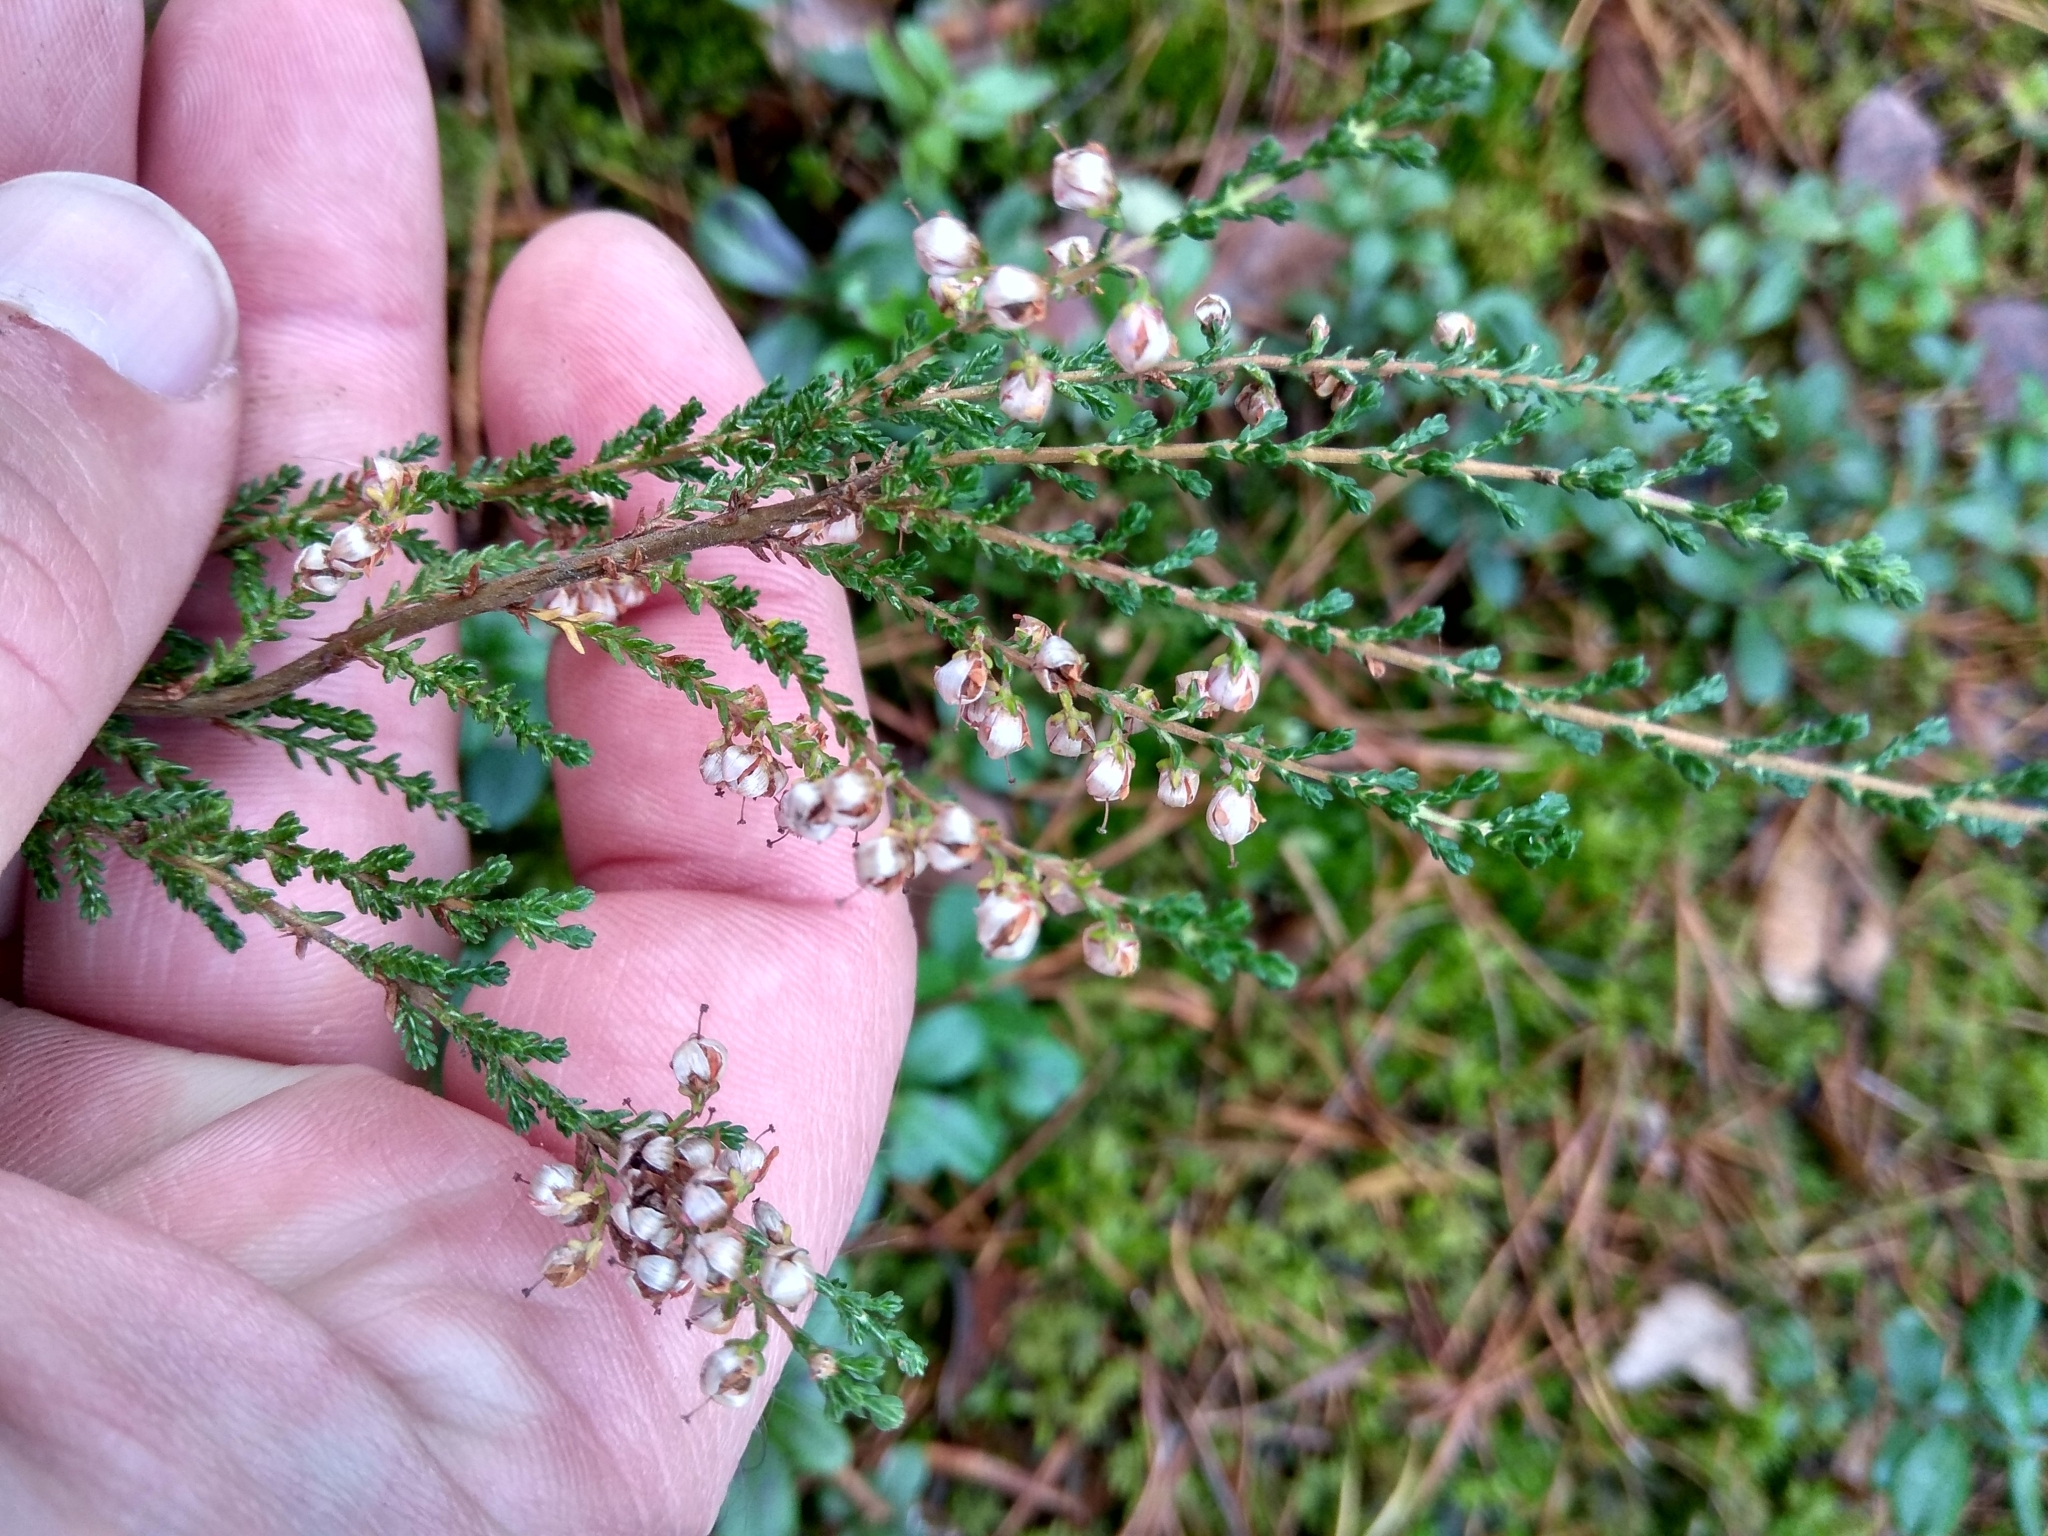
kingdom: Plantae
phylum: Tracheophyta
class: Magnoliopsida
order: Ericales
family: Ericaceae
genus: Calluna
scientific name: Calluna vulgaris
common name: Heather
